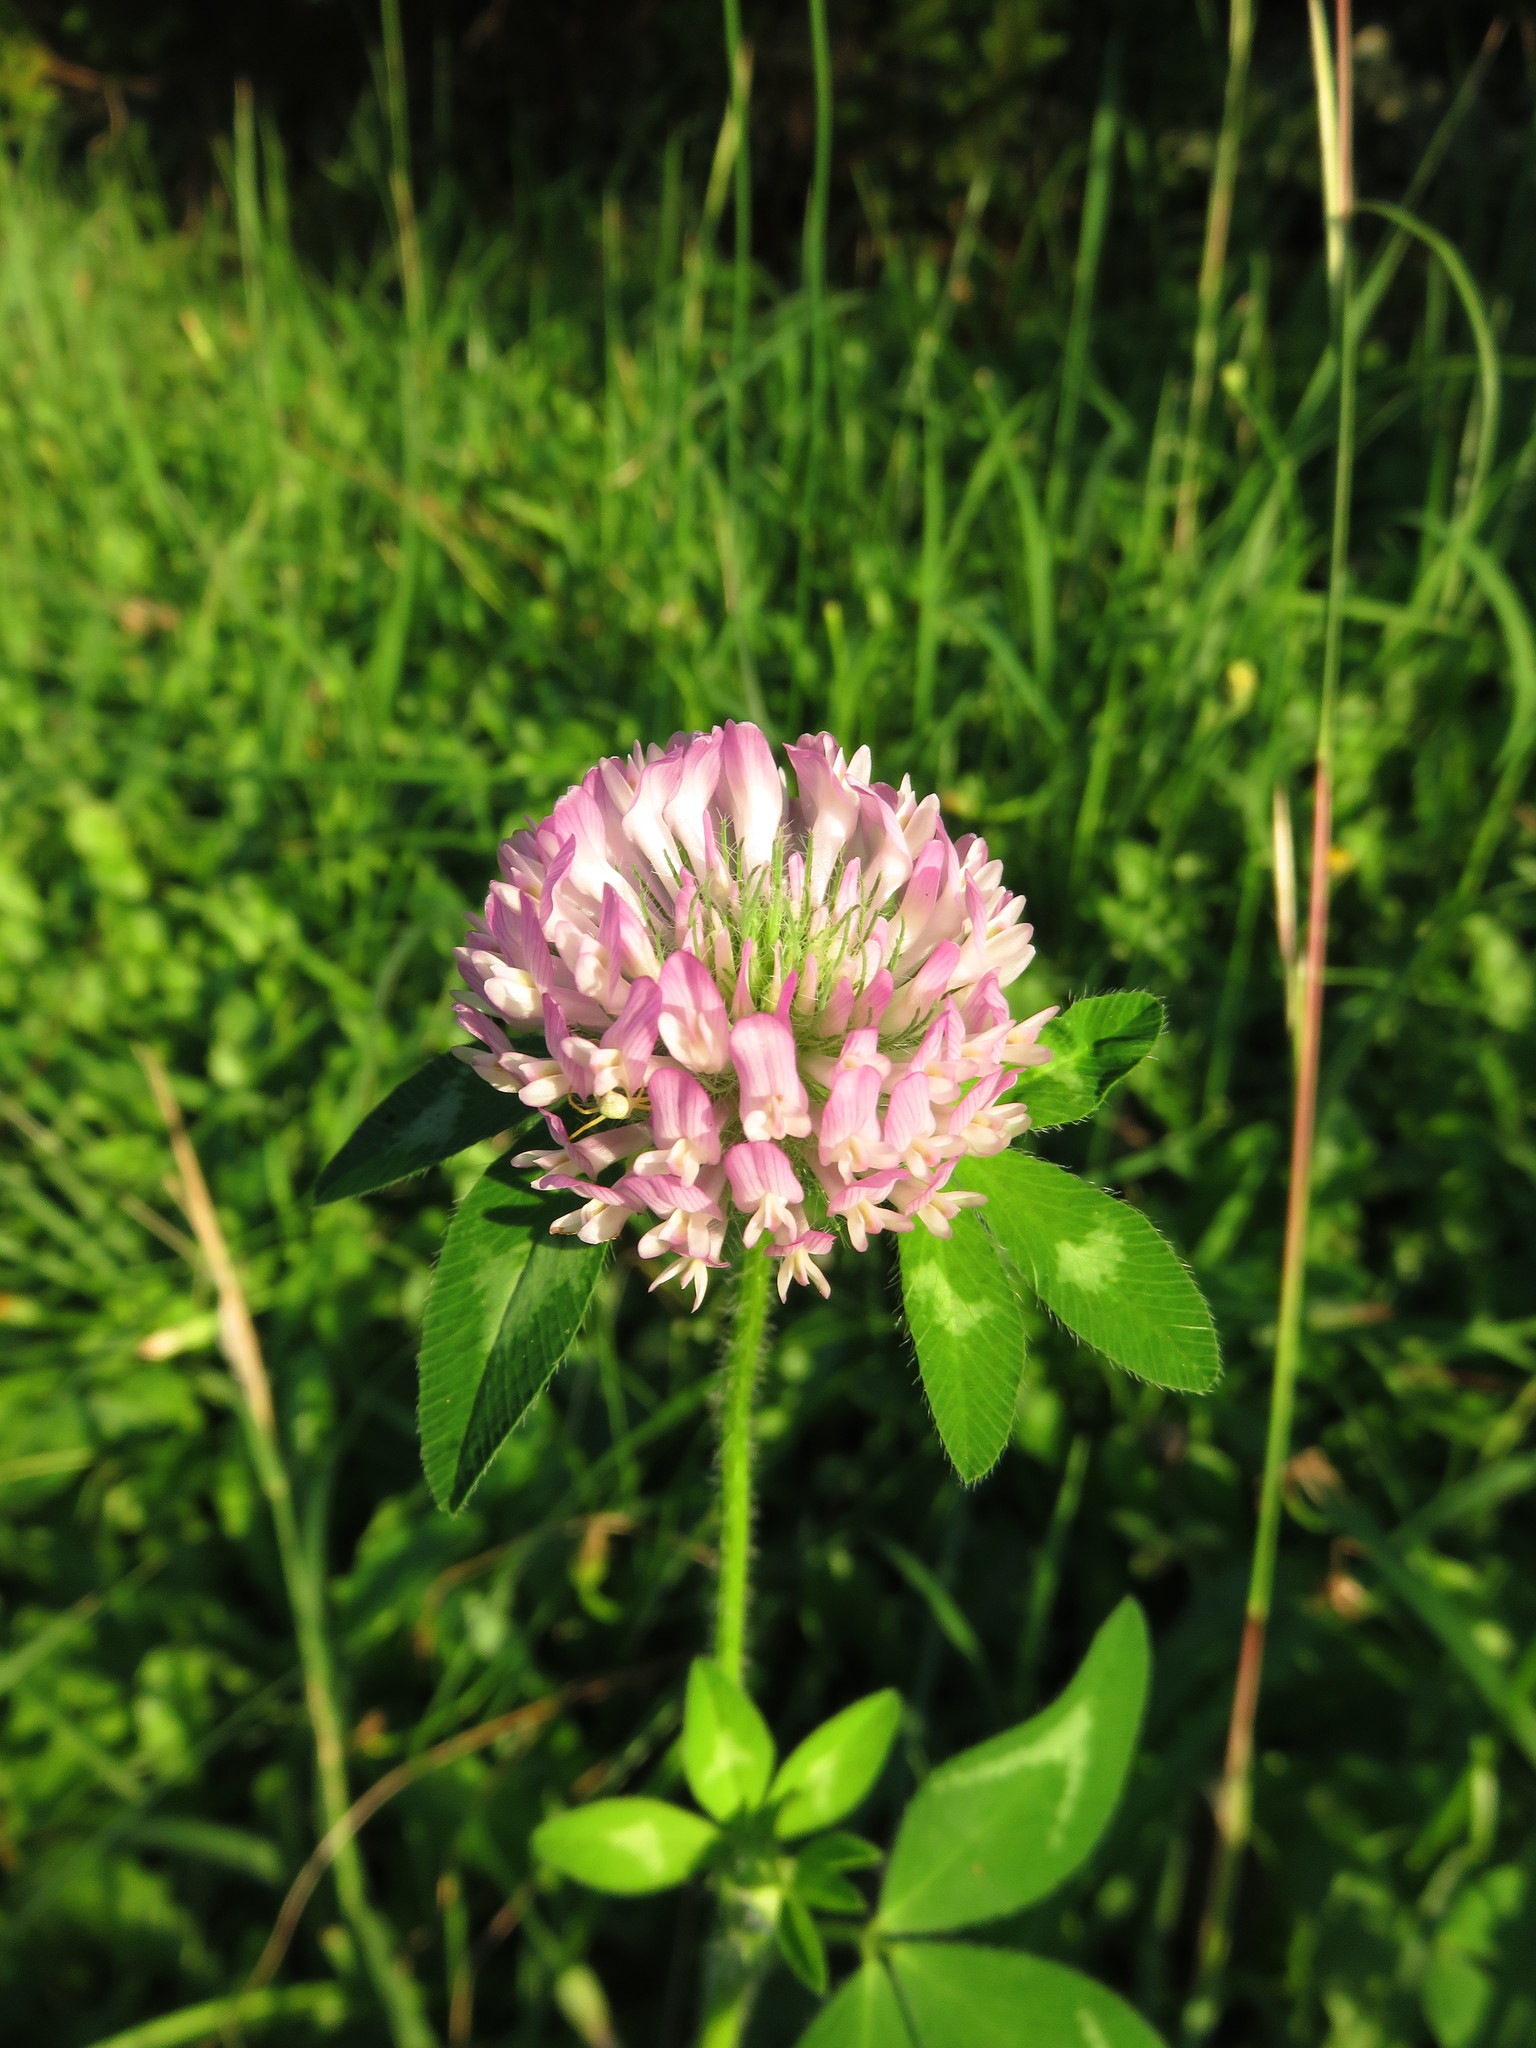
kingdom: Plantae
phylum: Tracheophyta
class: Magnoliopsida
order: Fabales
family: Fabaceae
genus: Trifolium
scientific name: Trifolium pratense
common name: Red clover
